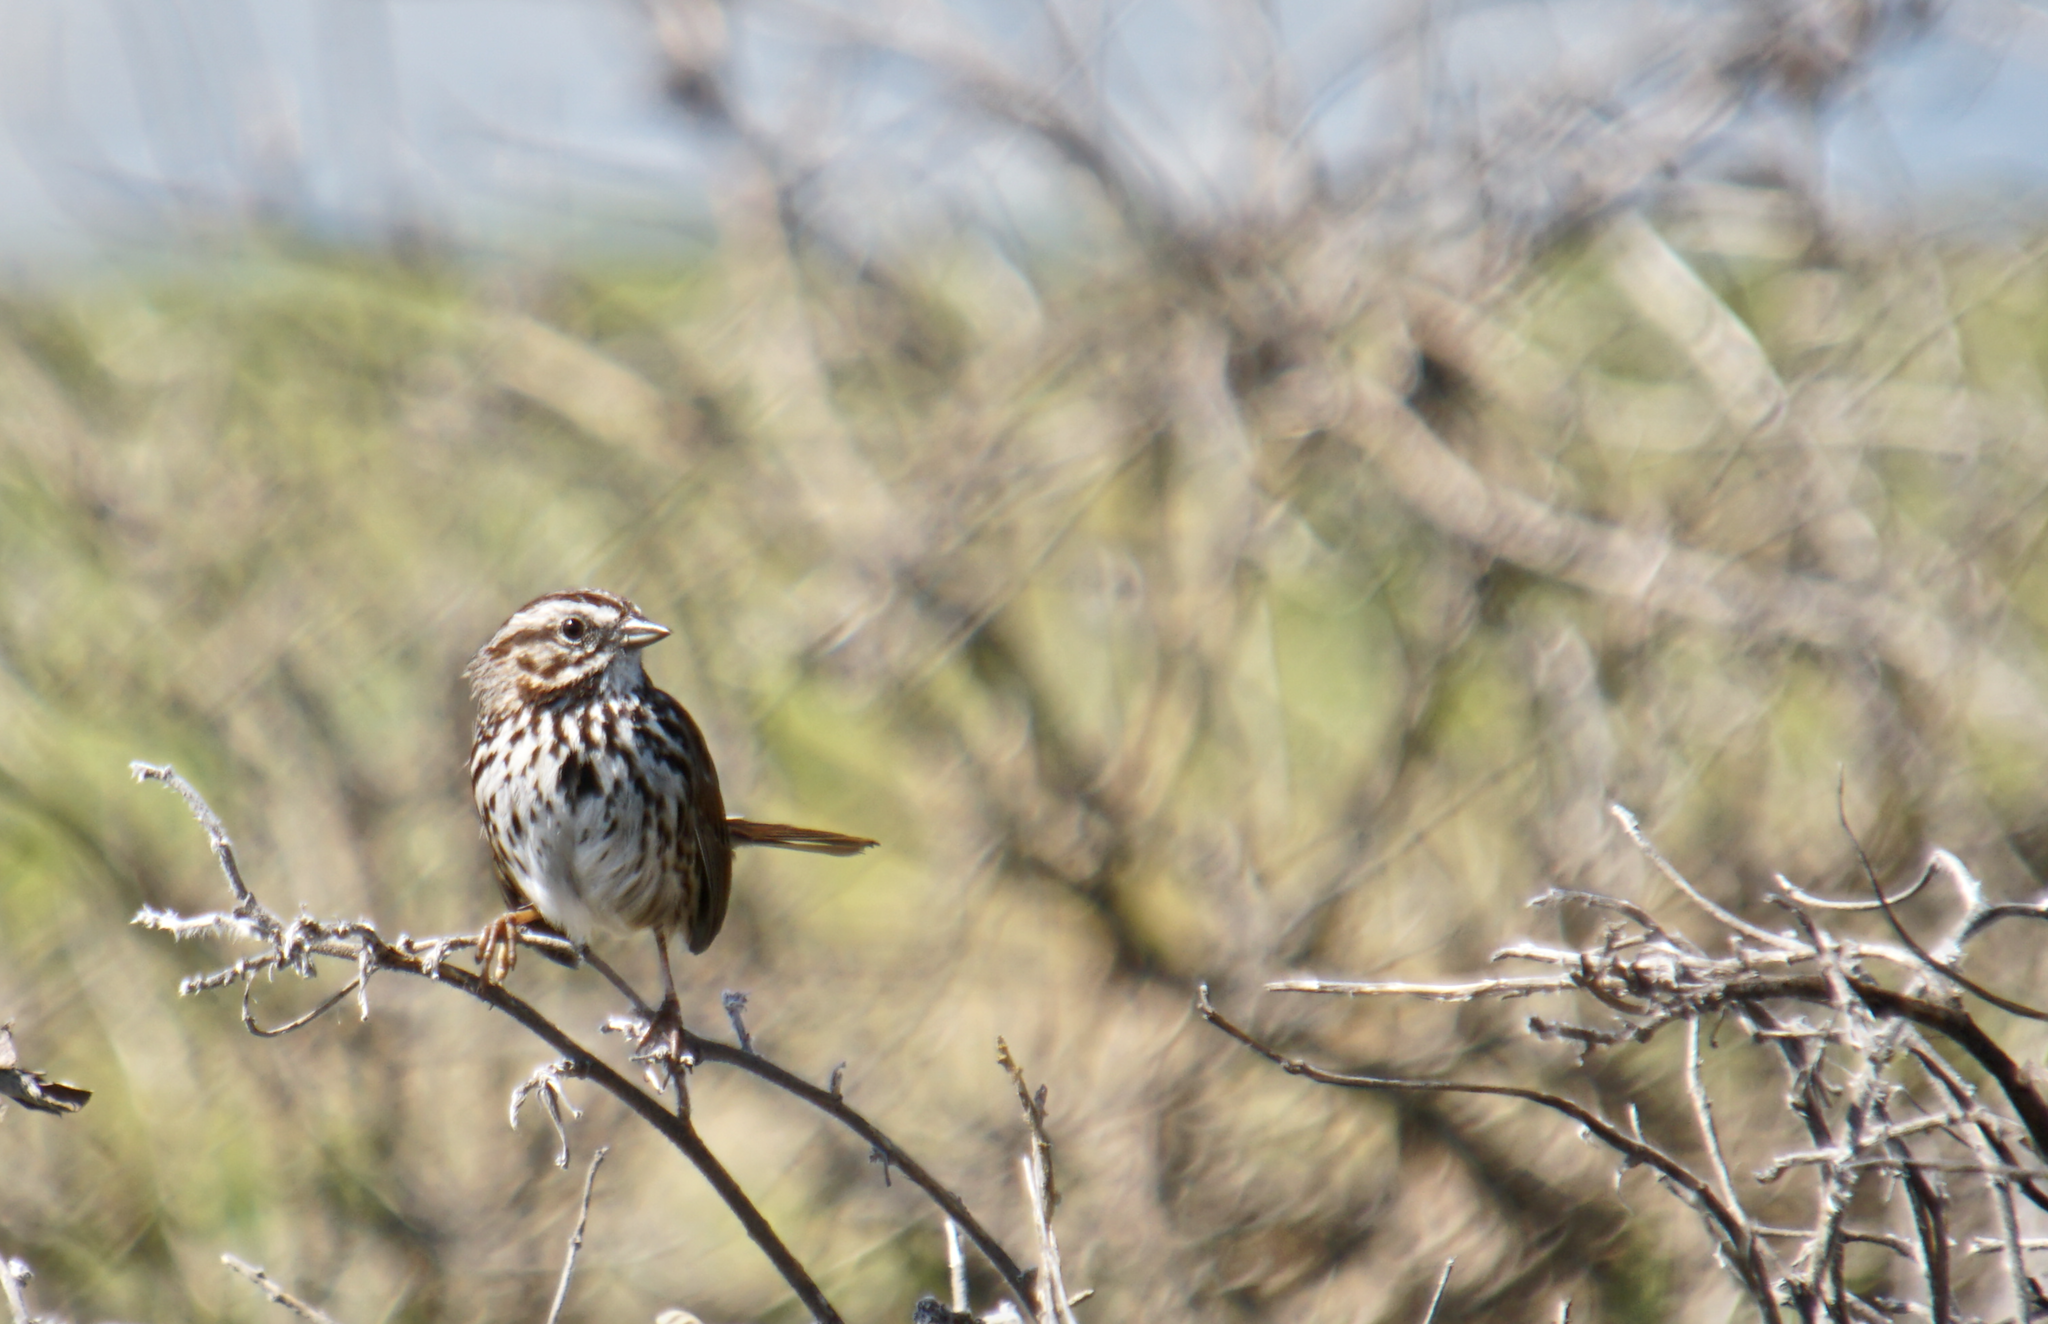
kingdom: Animalia
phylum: Chordata
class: Aves
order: Passeriformes
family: Passerellidae
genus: Melospiza
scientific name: Melospiza melodia
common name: Song sparrow
